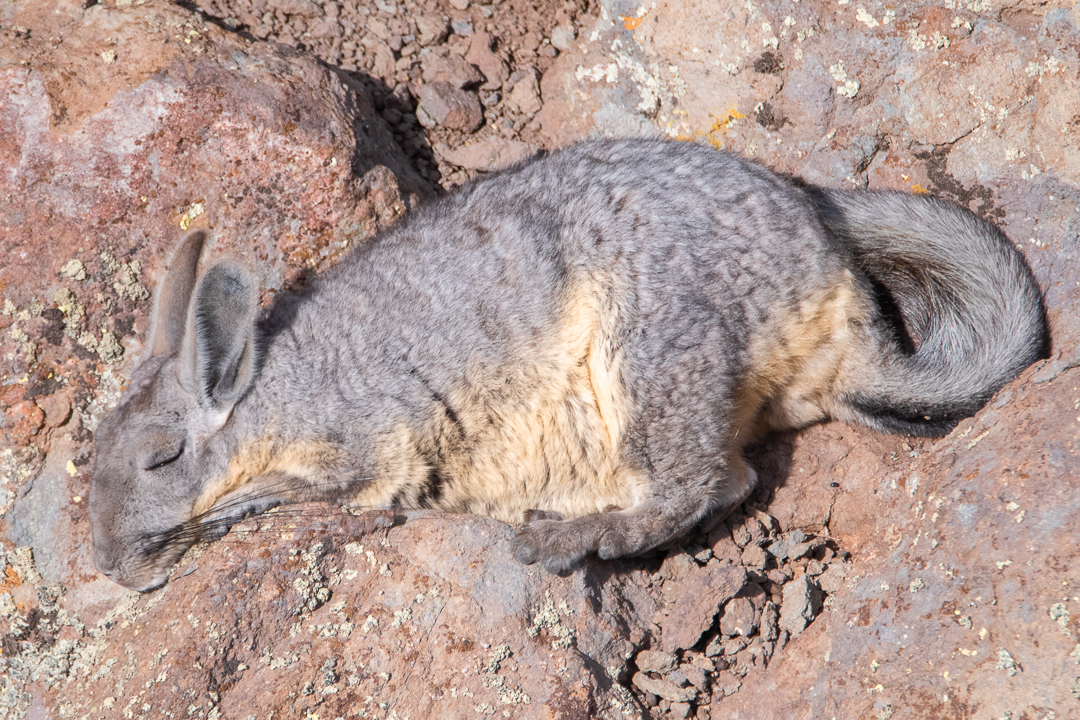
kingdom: Animalia
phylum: Chordata
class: Mammalia
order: Rodentia
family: Chinchillidae
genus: Lagidium
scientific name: Lagidium viscacia
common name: Southern viscacha
